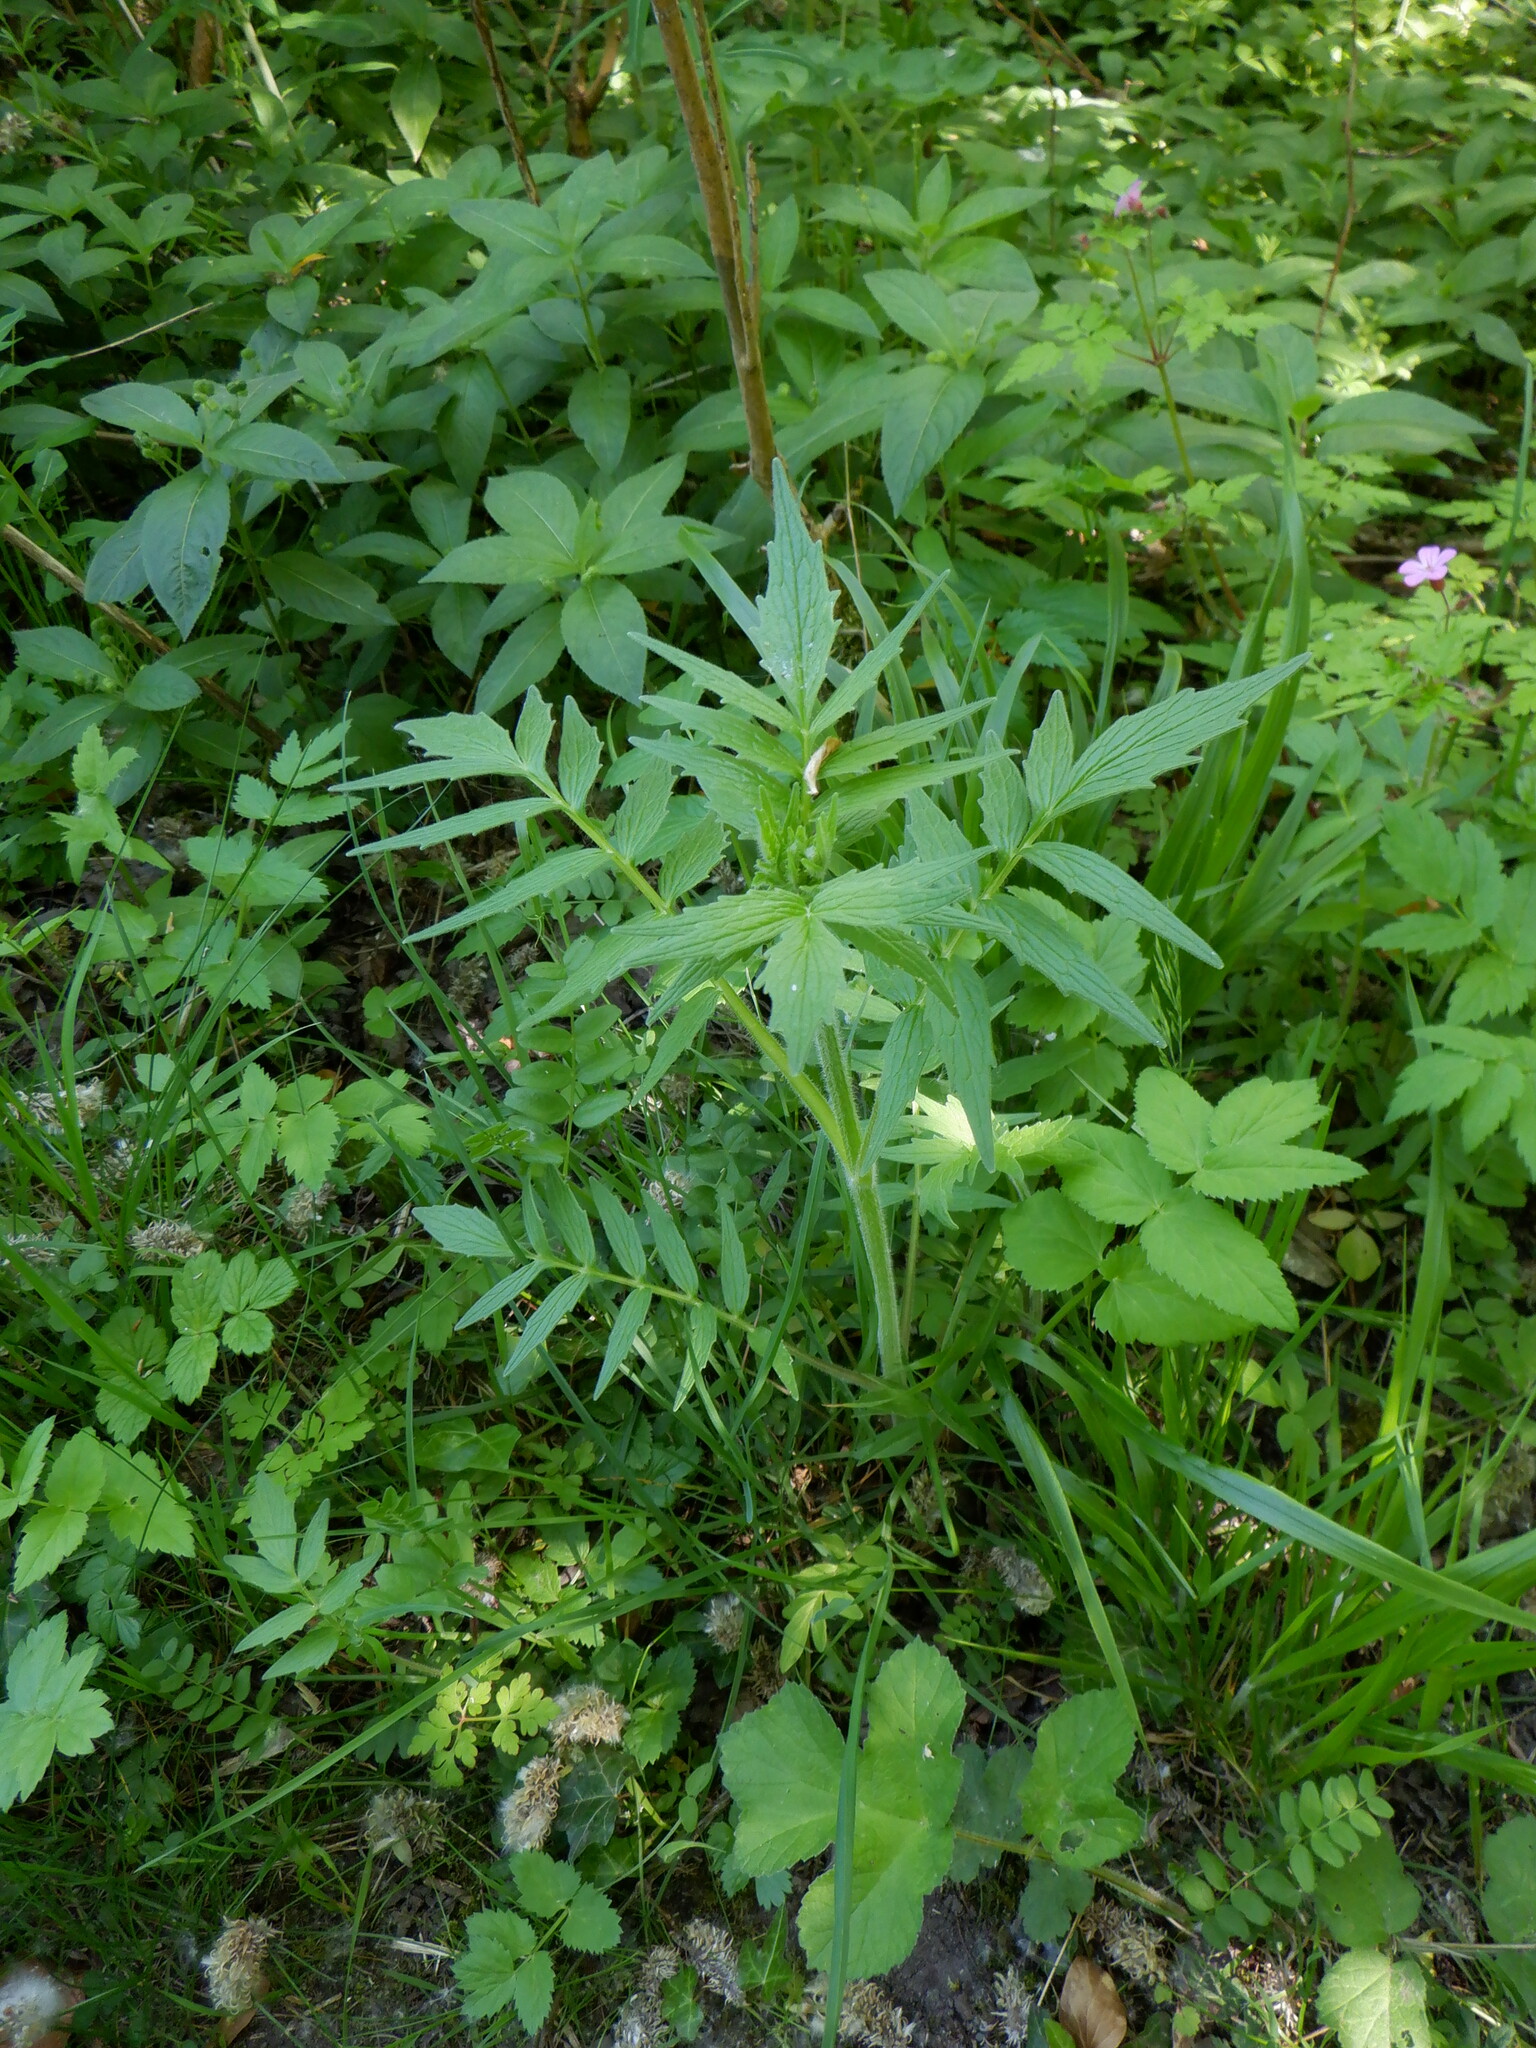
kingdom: Plantae
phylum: Tracheophyta
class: Magnoliopsida
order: Dipsacales
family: Caprifoliaceae
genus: Valeriana
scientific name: Valeriana officinalis
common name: Common valerian
